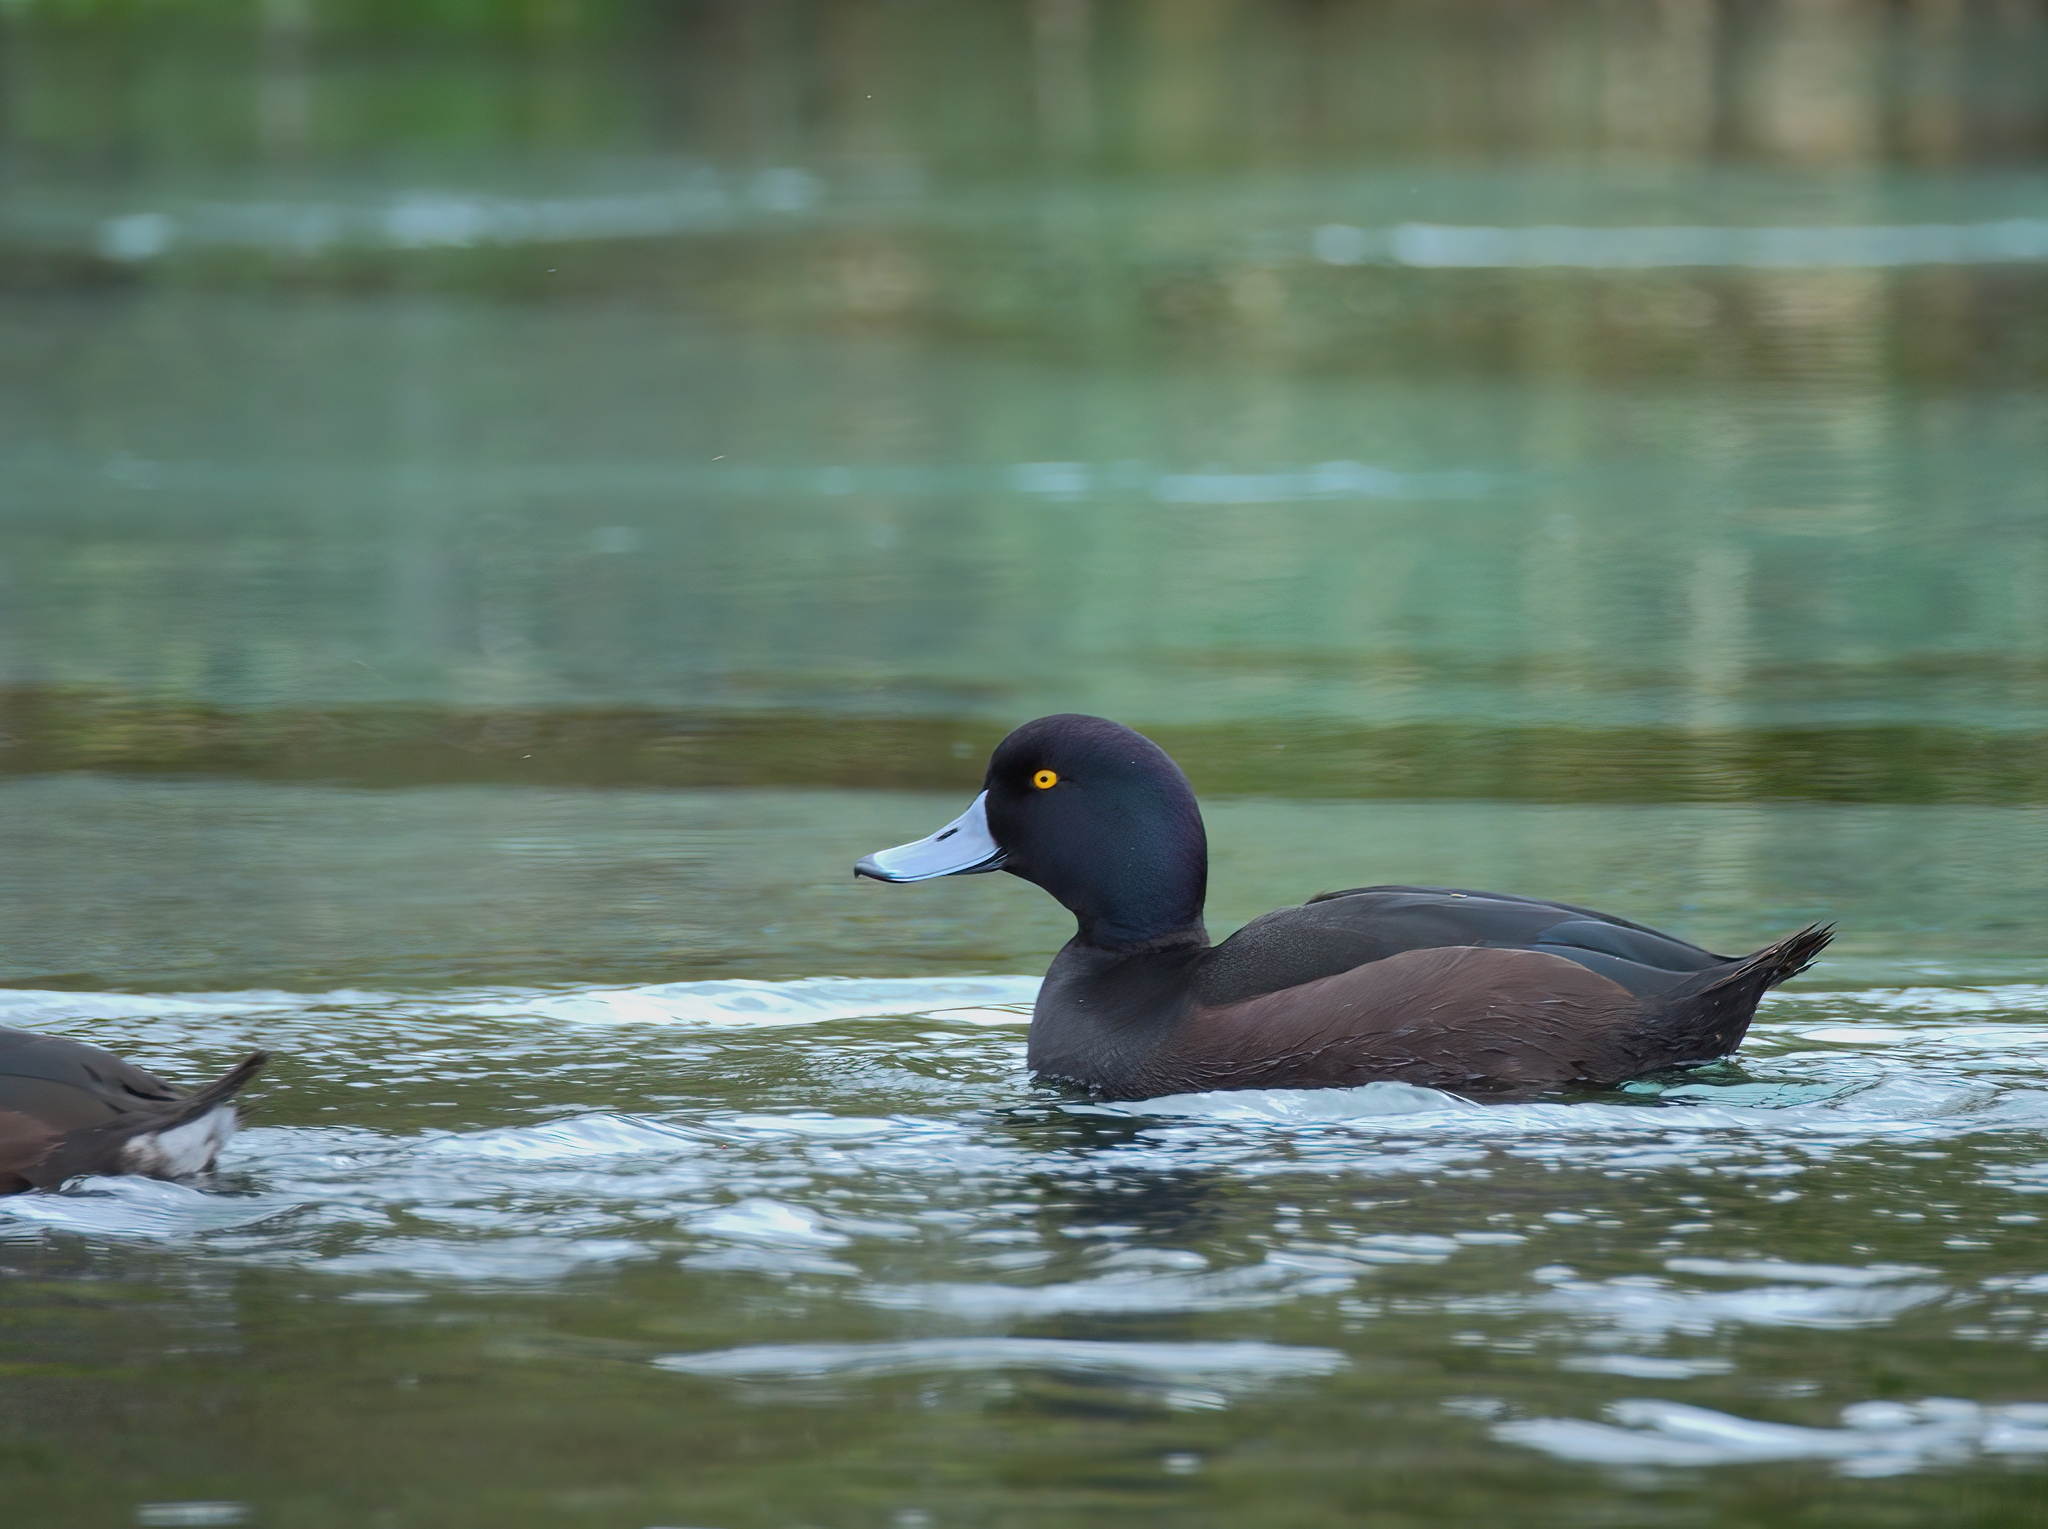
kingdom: Animalia
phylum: Chordata
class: Aves
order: Anseriformes
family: Anatidae
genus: Aythya
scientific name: Aythya novaeseelandiae
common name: New zealand scaup
